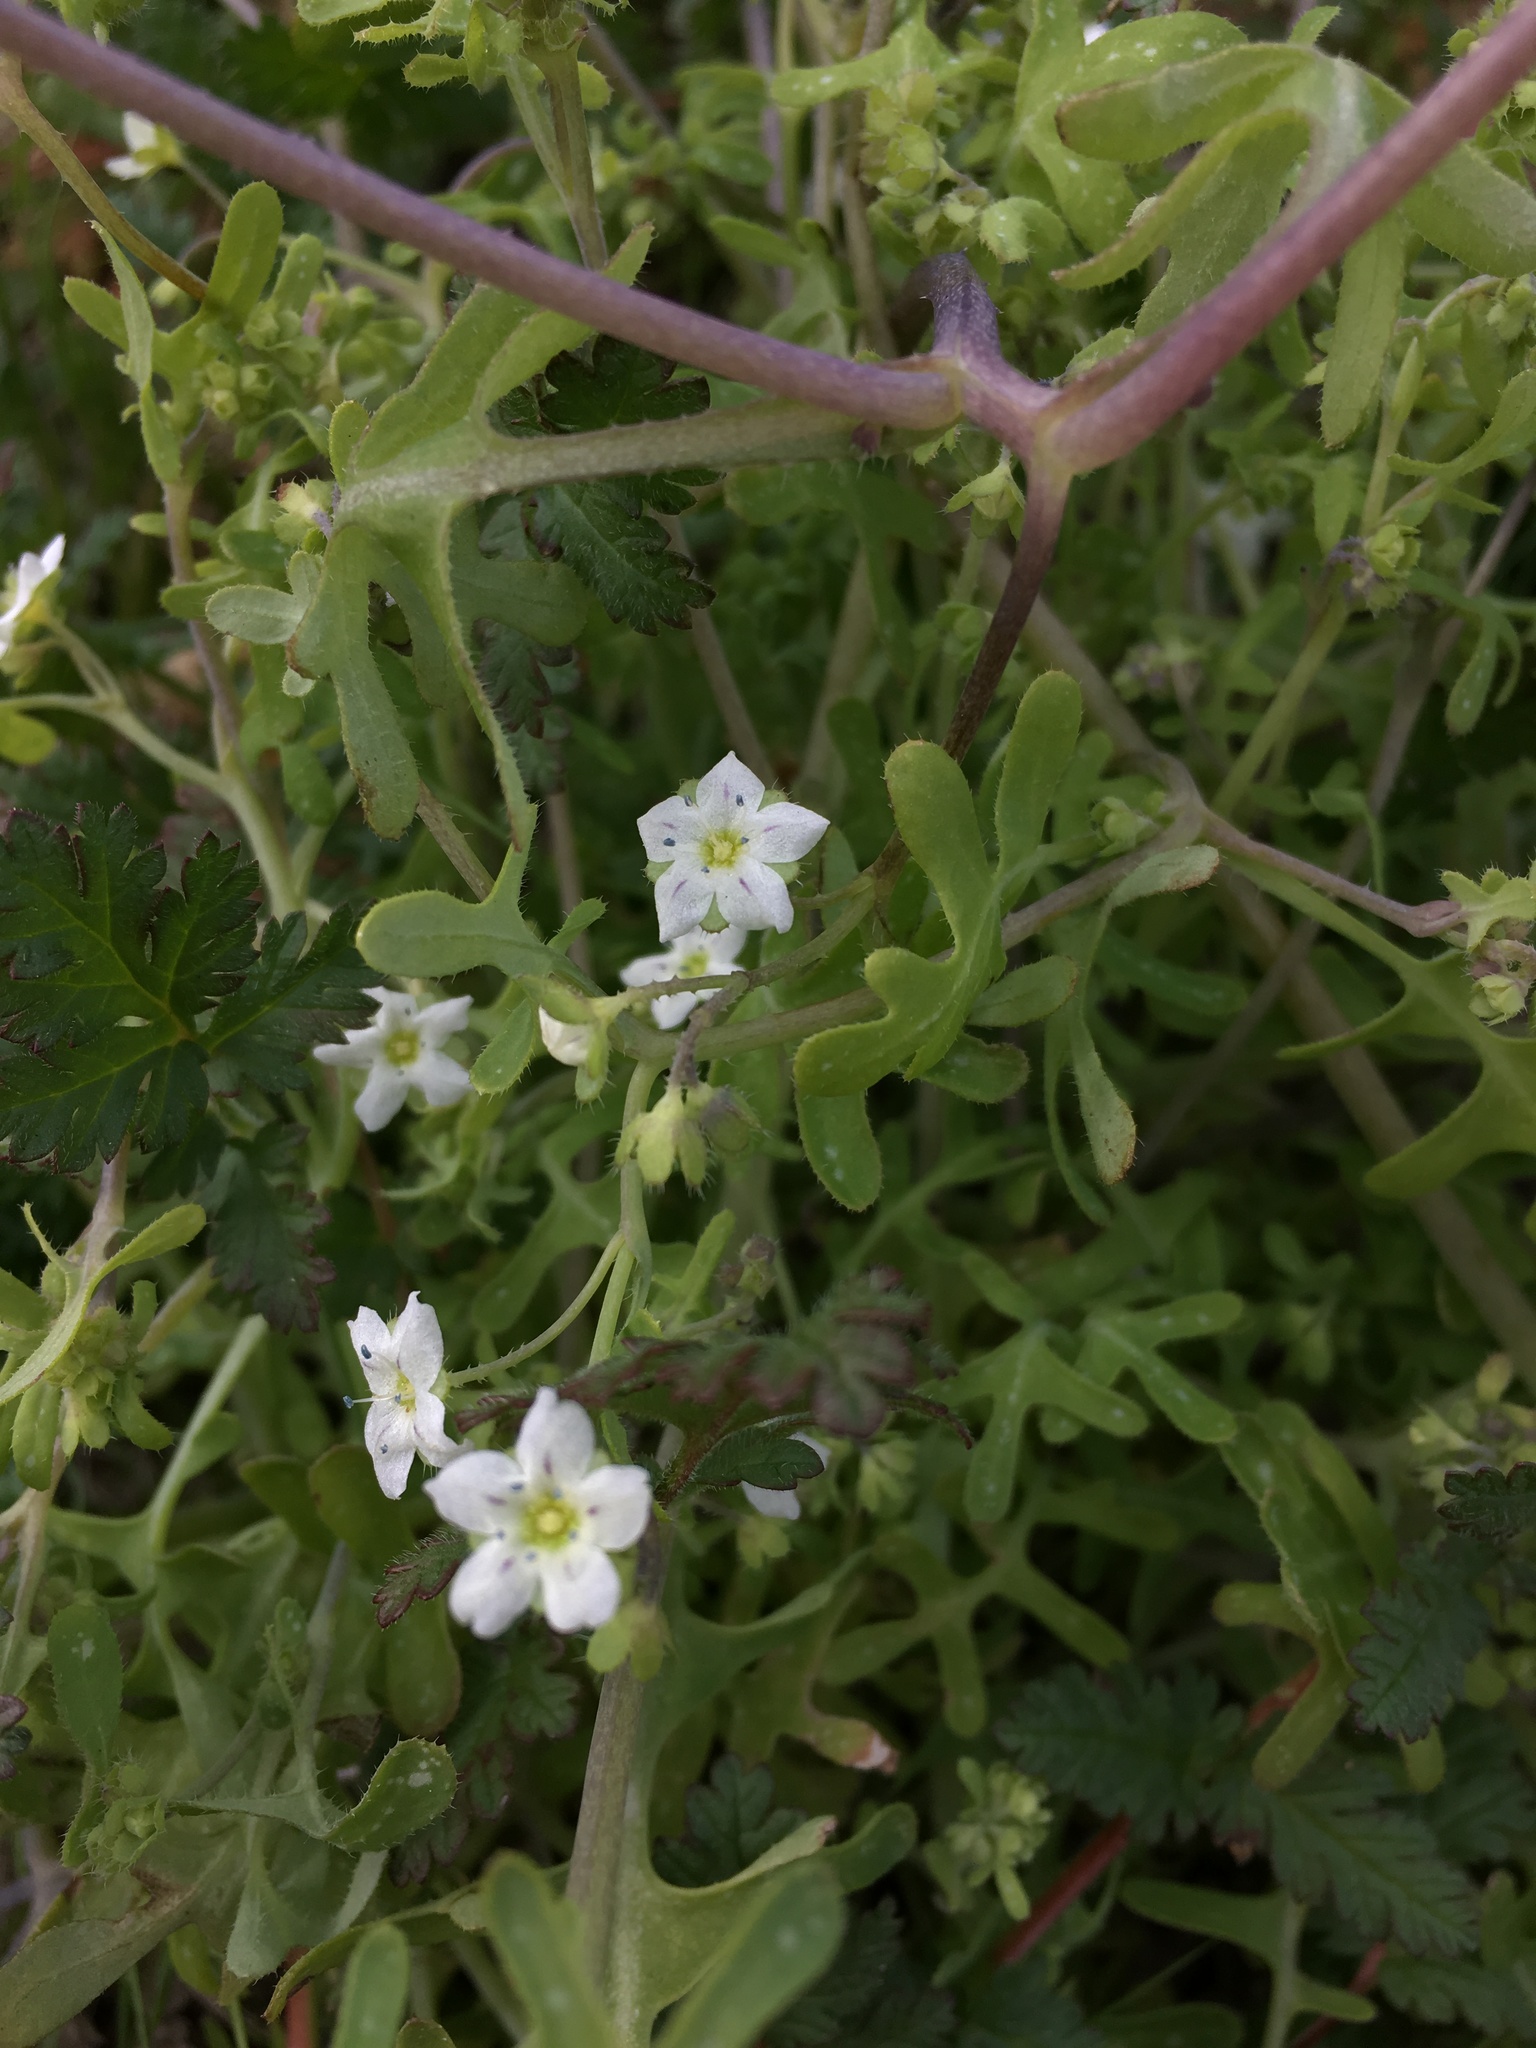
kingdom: Plantae
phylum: Tracheophyta
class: Magnoliopsida
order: Boraginales
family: Hydrophyllaceae
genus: Pholistoma
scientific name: Pholistoma membranaceum
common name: White fiesta-flower
